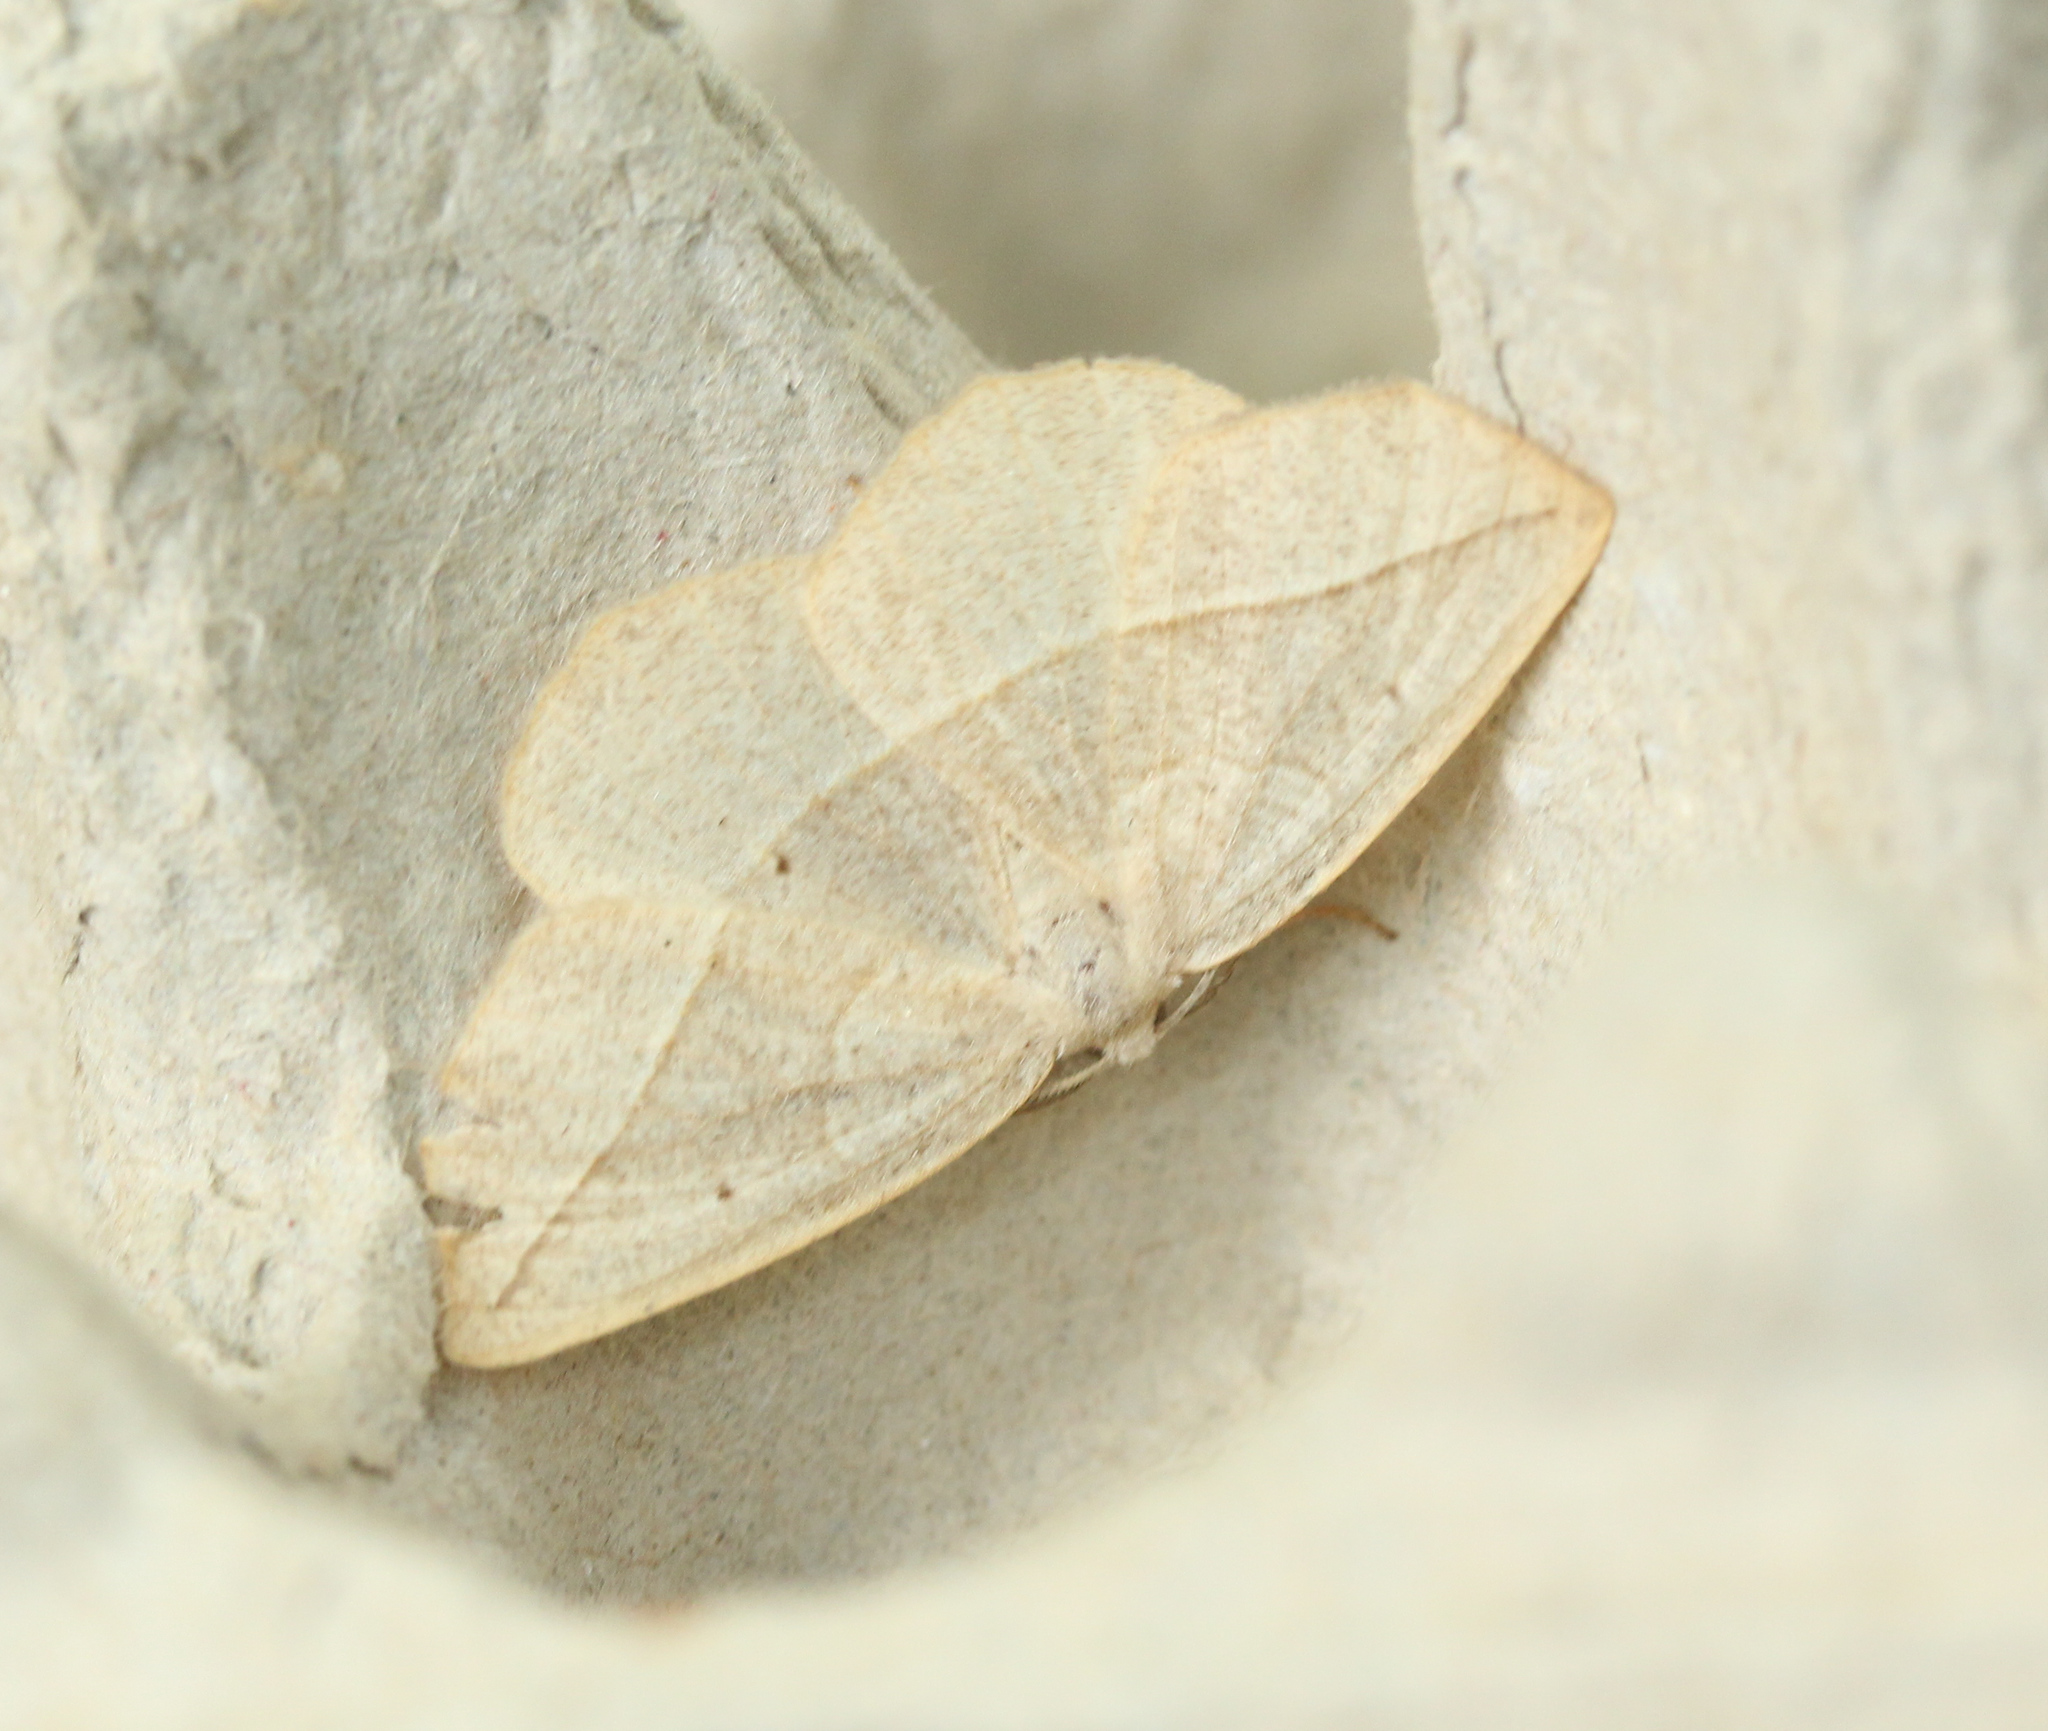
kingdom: Animalia
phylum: Arthropoda
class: Insecta
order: Lepidoptera
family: Geometridae
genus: Eusarca
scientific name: Eusarca confusaria
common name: Confused eusarca
